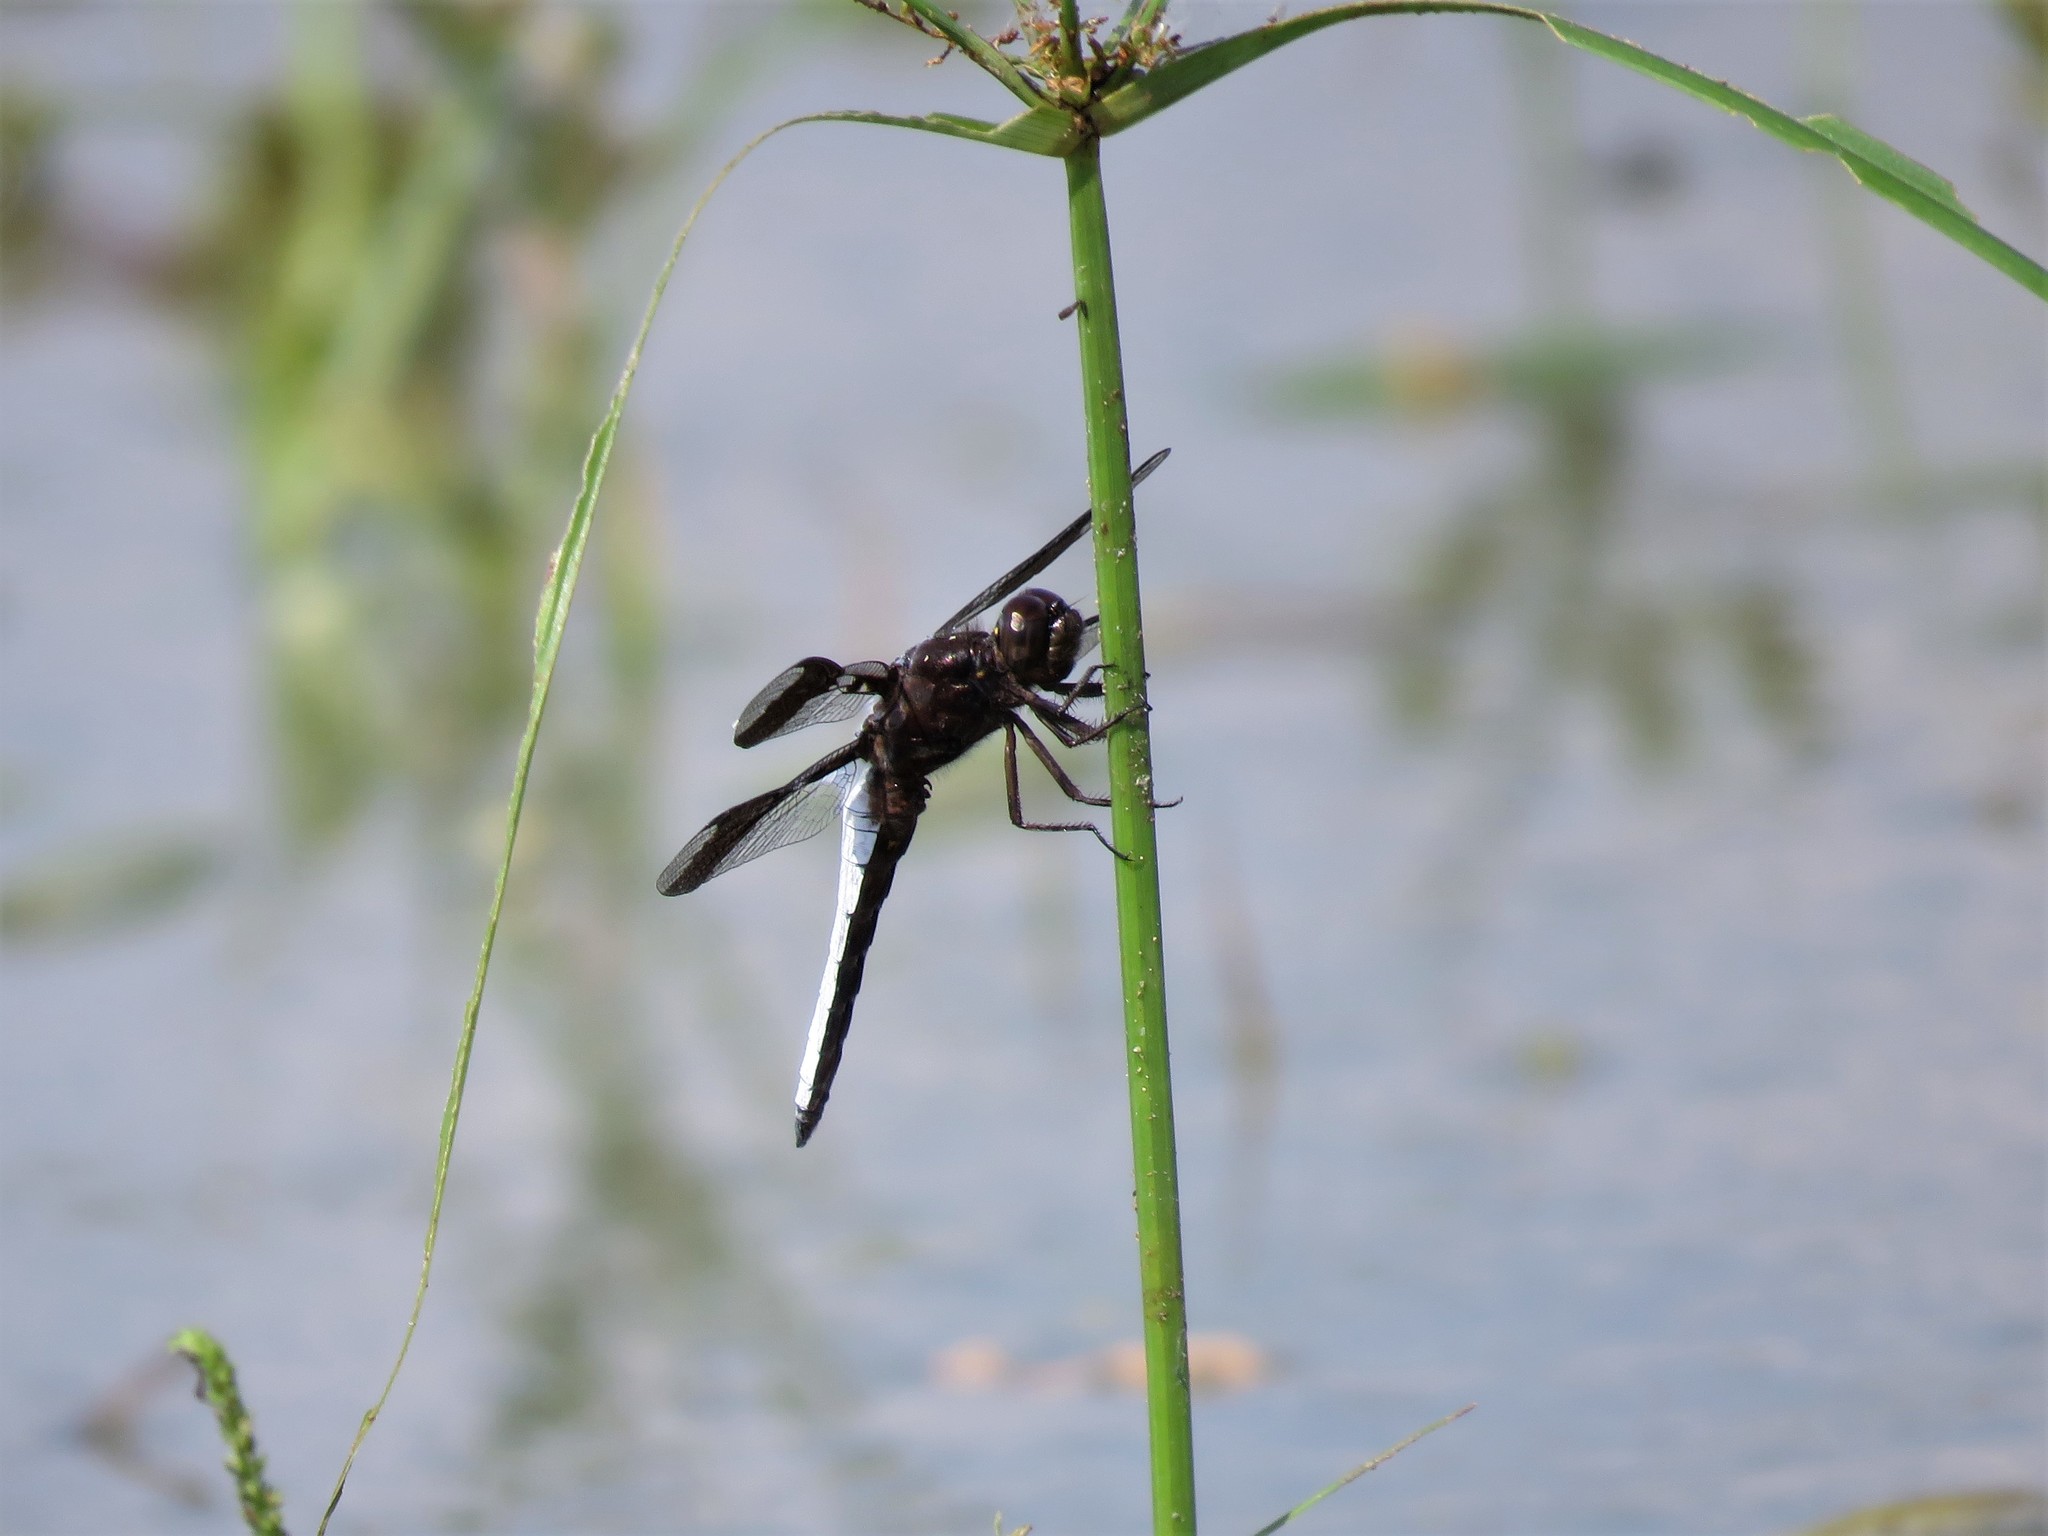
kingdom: Animalia
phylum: Arthropoda
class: Insecta
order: Odonata
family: Libellulidae
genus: Plathemis
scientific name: Plathemis lydia
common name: Common whitetail
